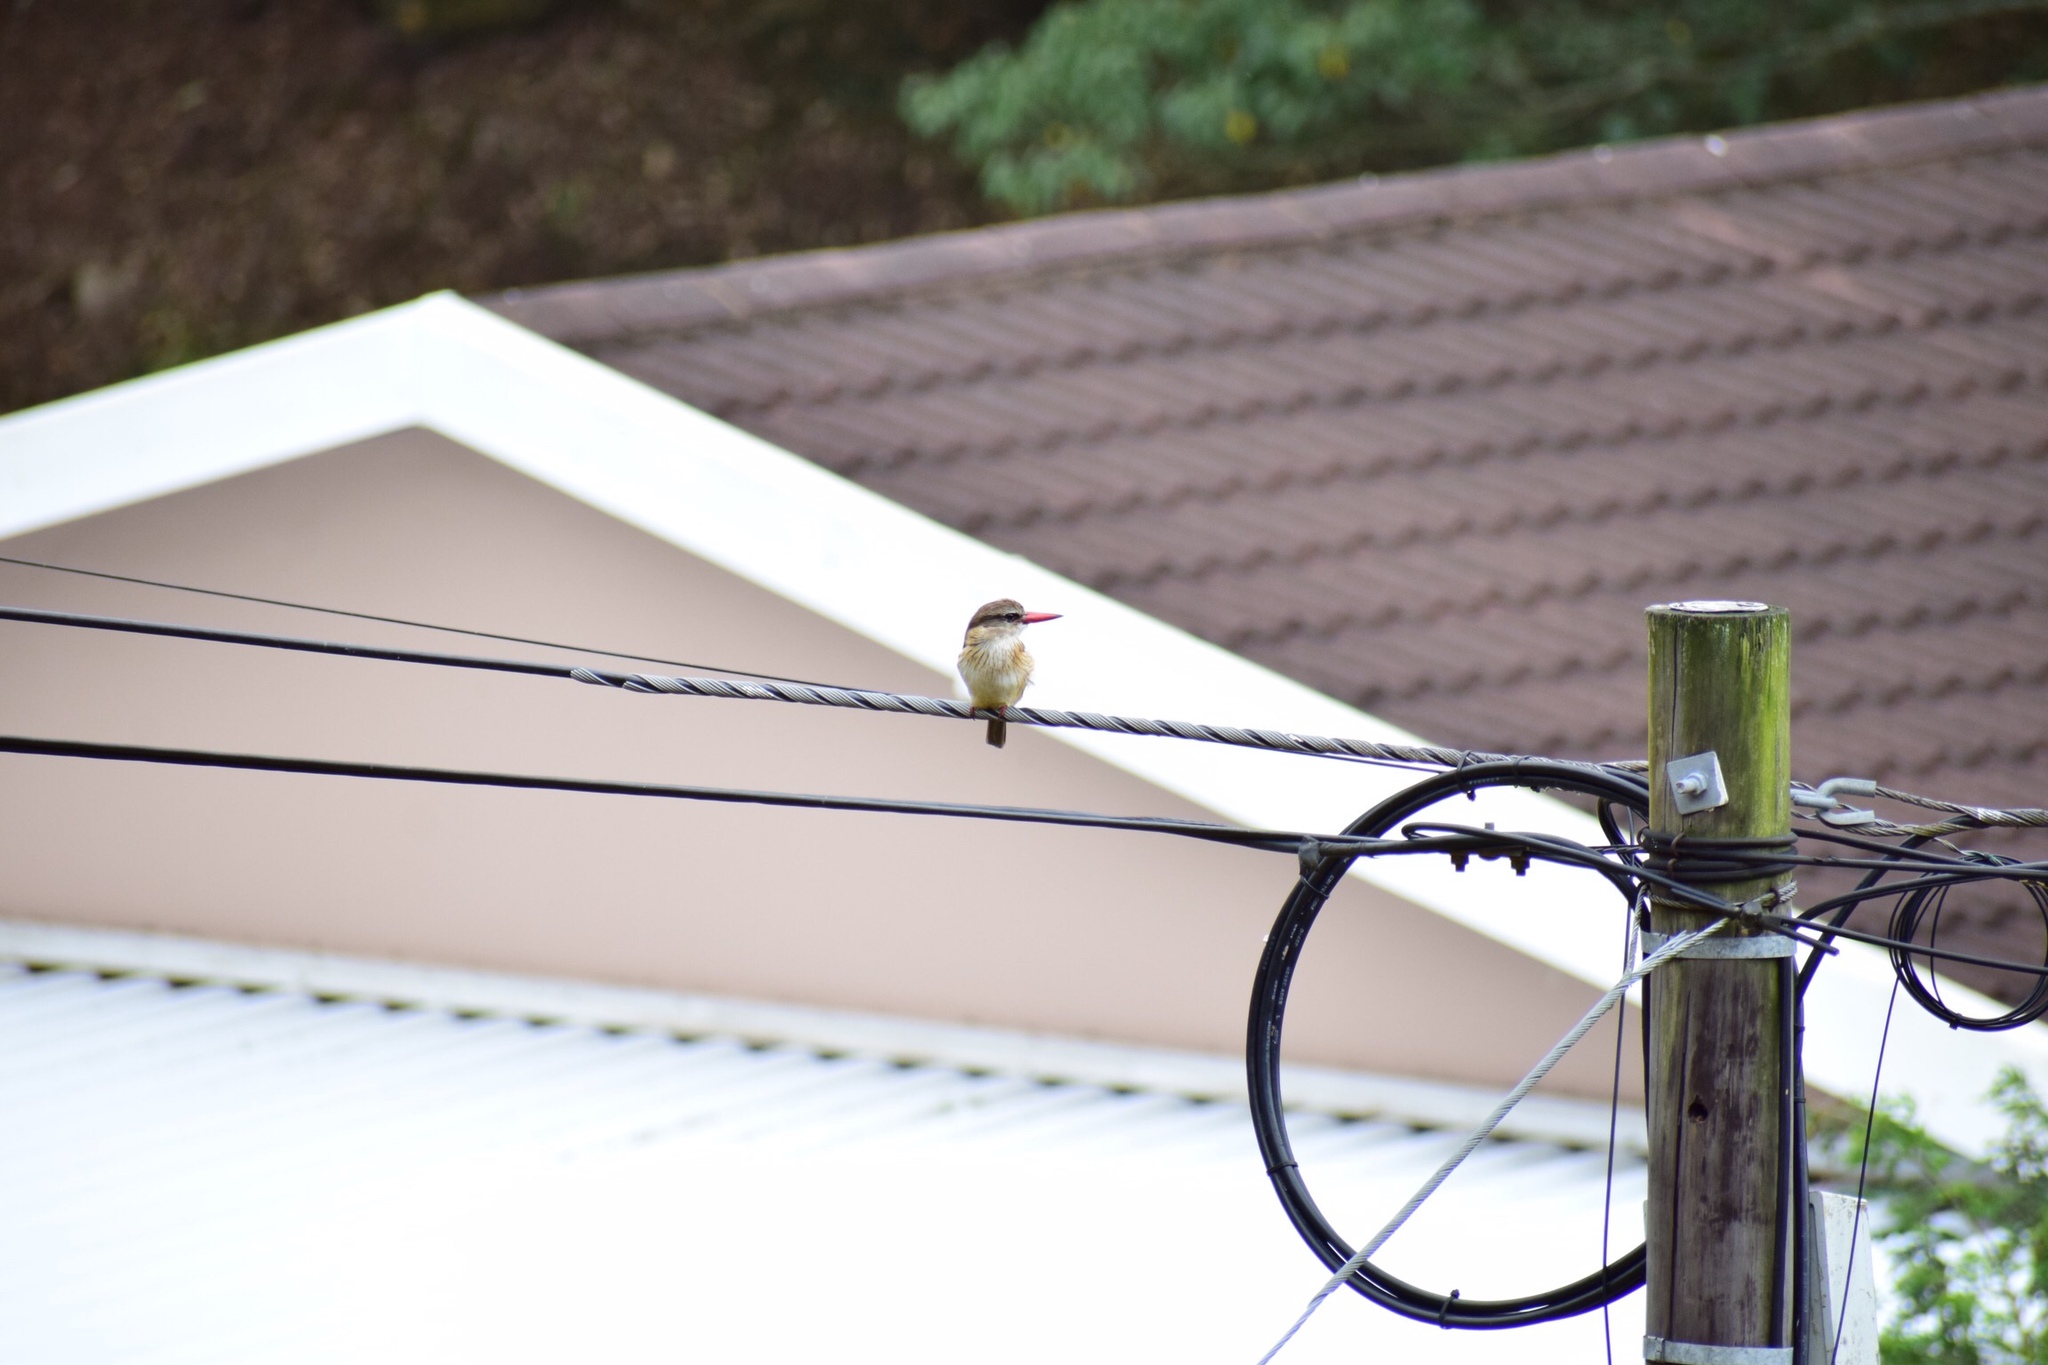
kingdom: Animalia
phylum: Chordata
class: Aves
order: Coraciiformes
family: Alcedinidae
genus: Halcyon
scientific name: Halcyon albiventris
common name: Brown-hooded kingfisher
